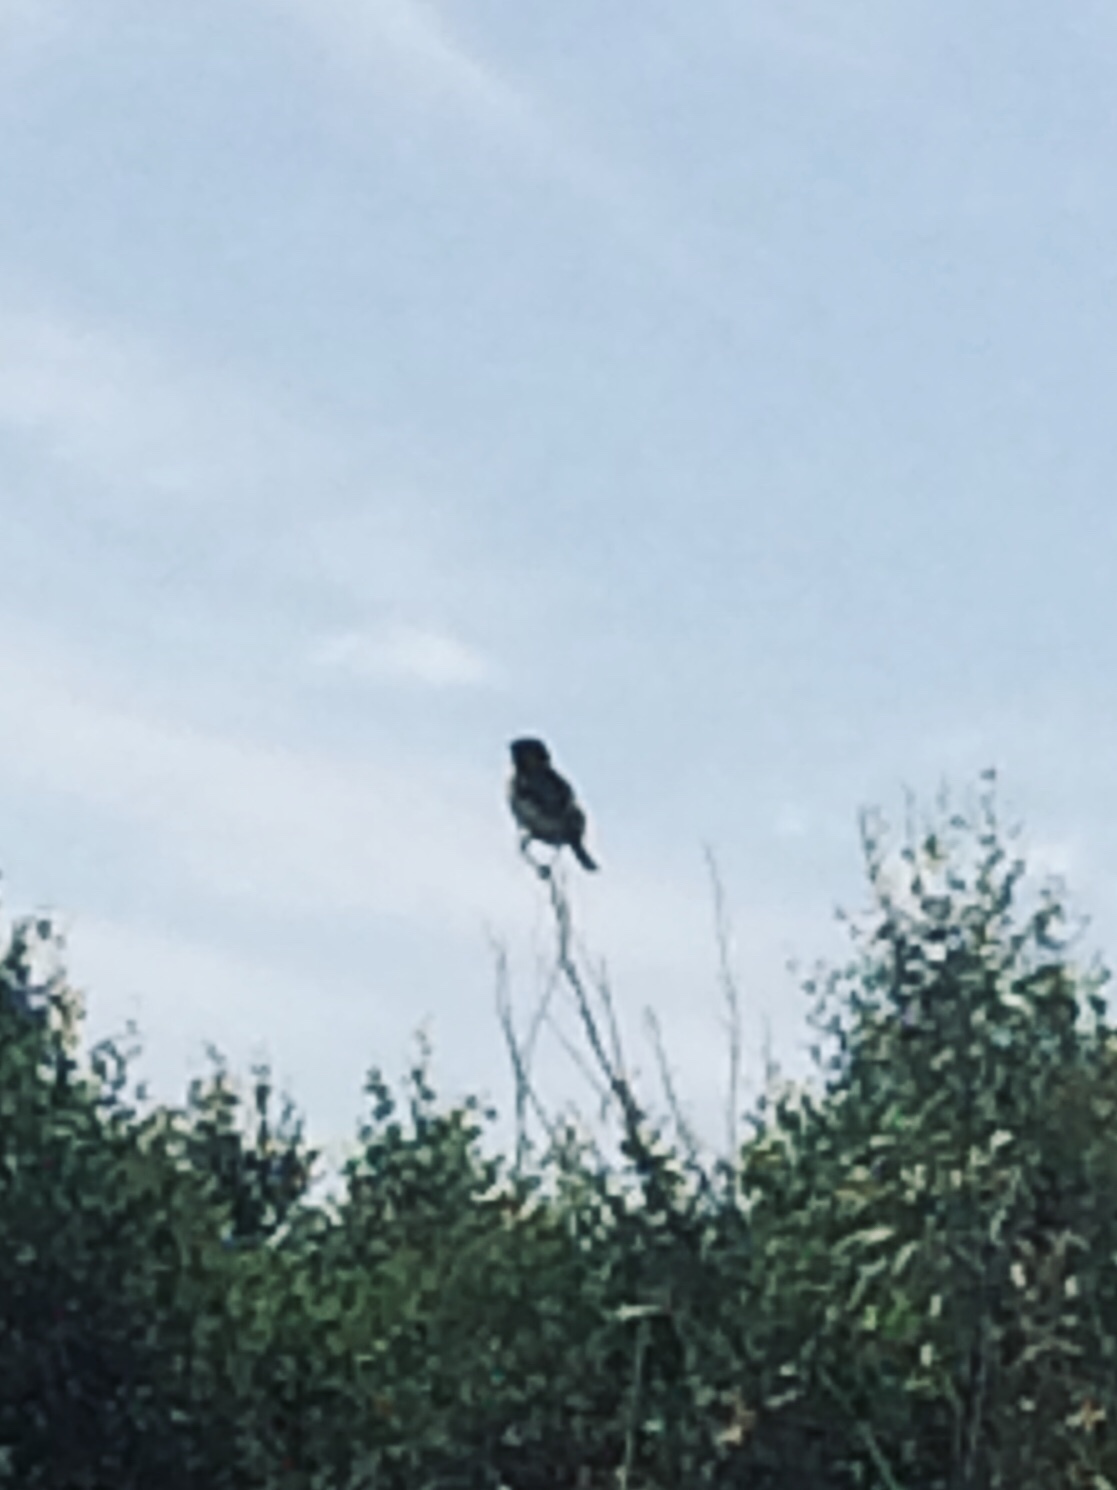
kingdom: Animalia
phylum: Chordata
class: Aves
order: Passeriformes
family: Muscicapidae
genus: Saxicola
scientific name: Saxicola maurus
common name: Siberian stonechat
